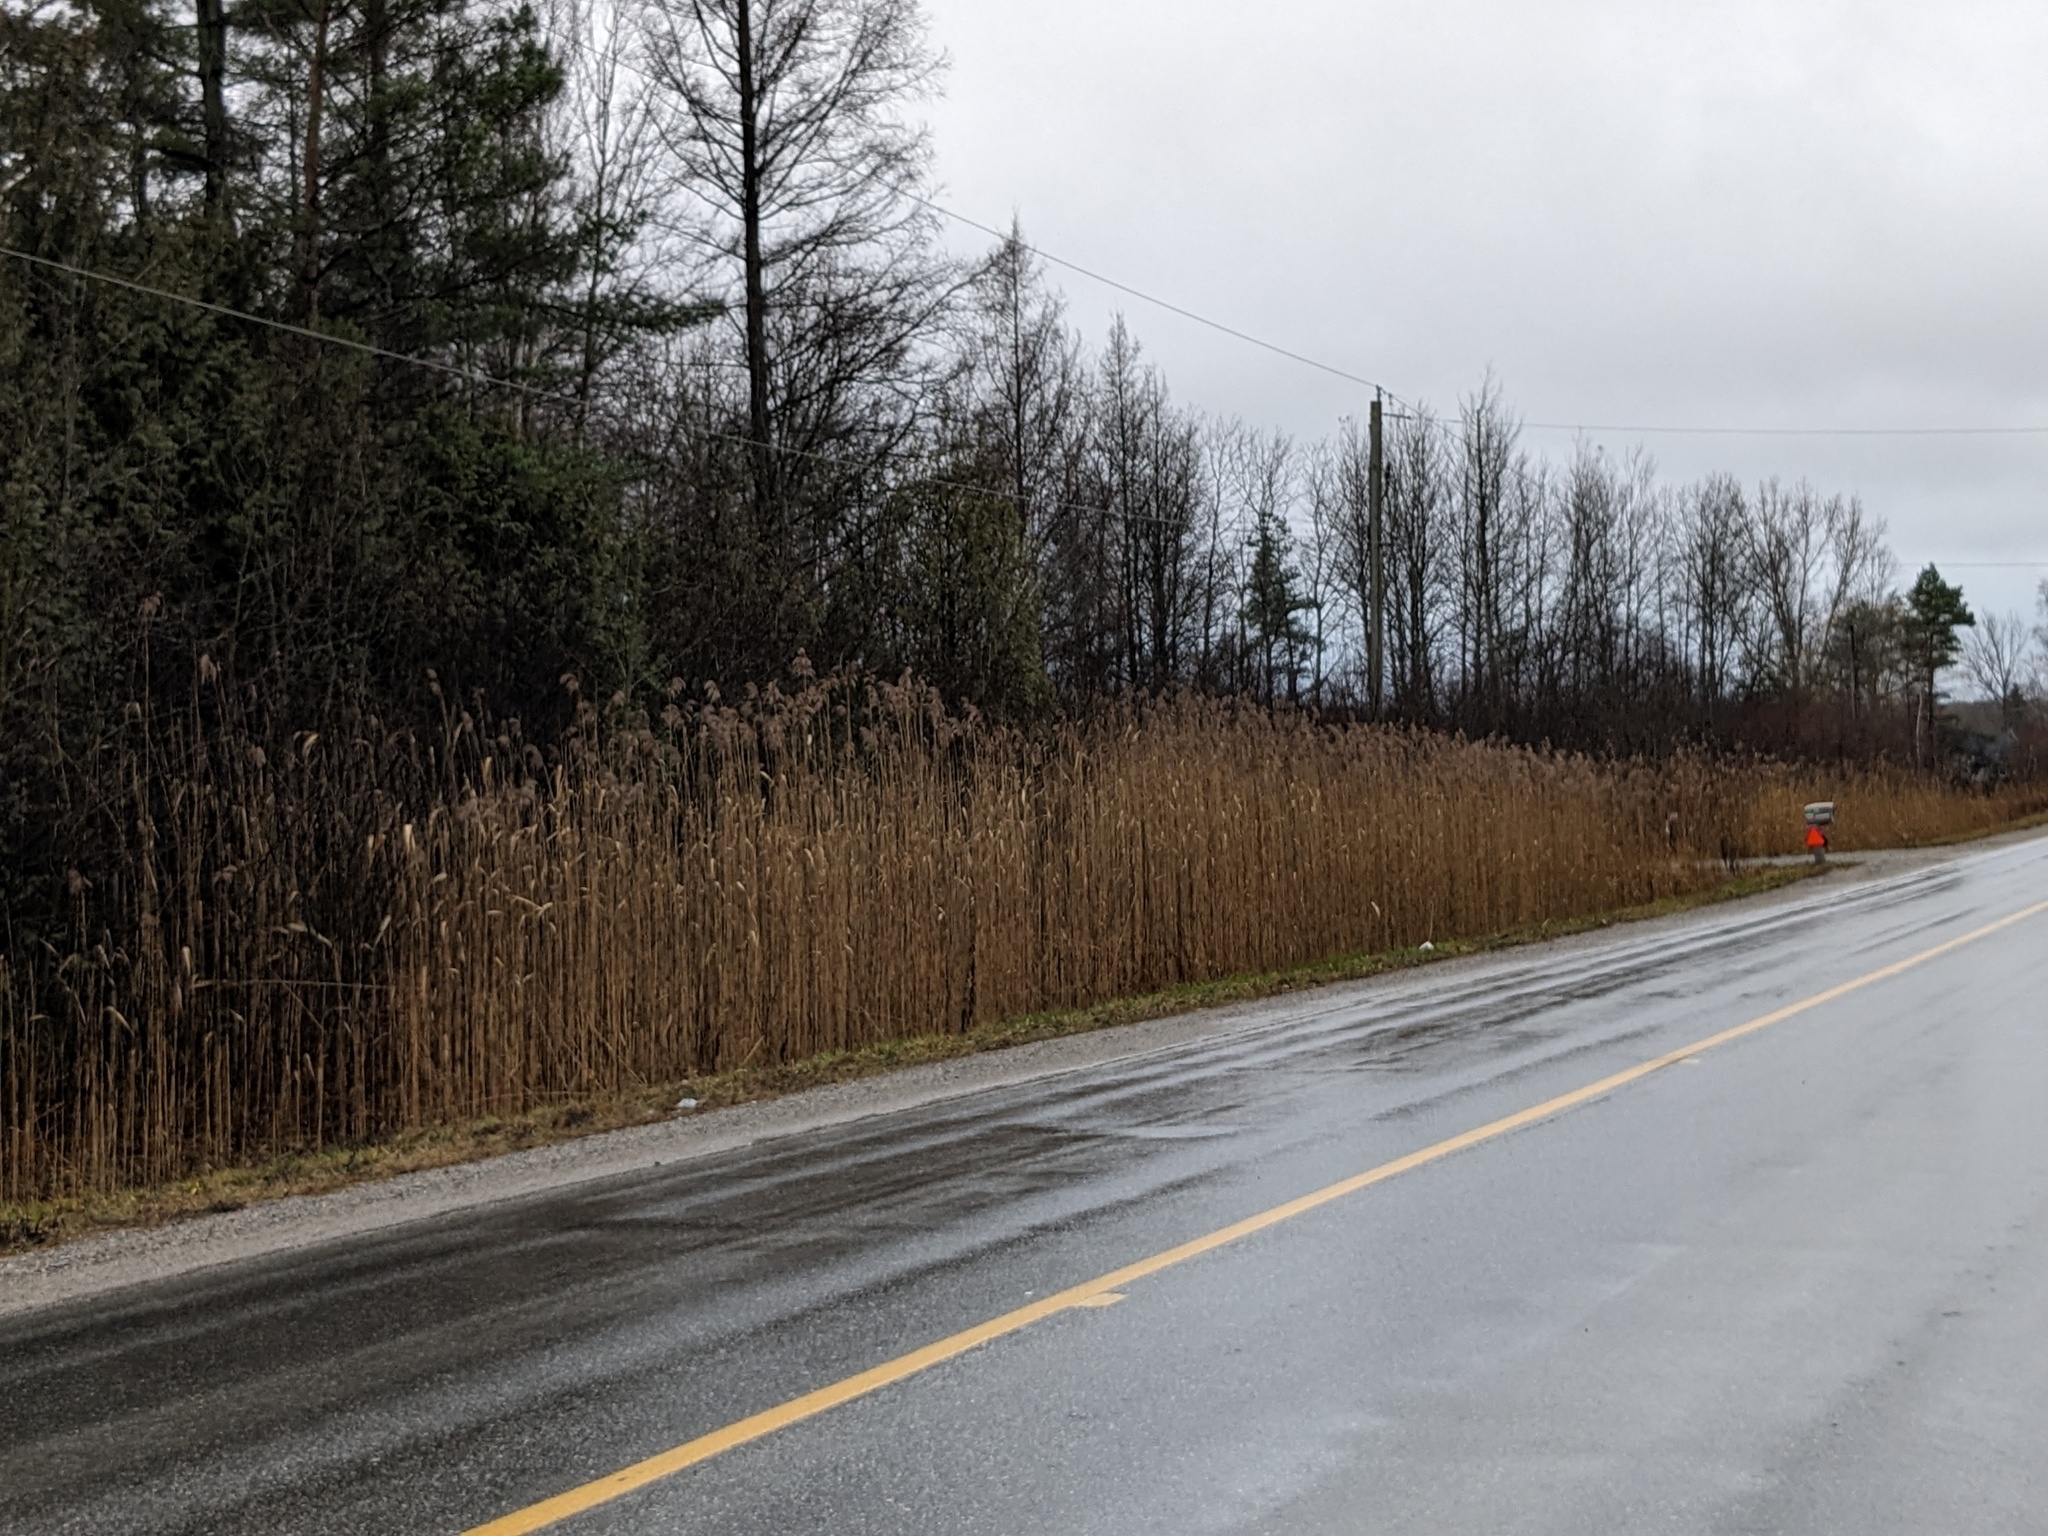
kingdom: Plantae
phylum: Tracheophyta
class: Liliopsida
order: Poales
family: Poaceae
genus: Phragmites
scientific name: Phragmites australis
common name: Common reed
